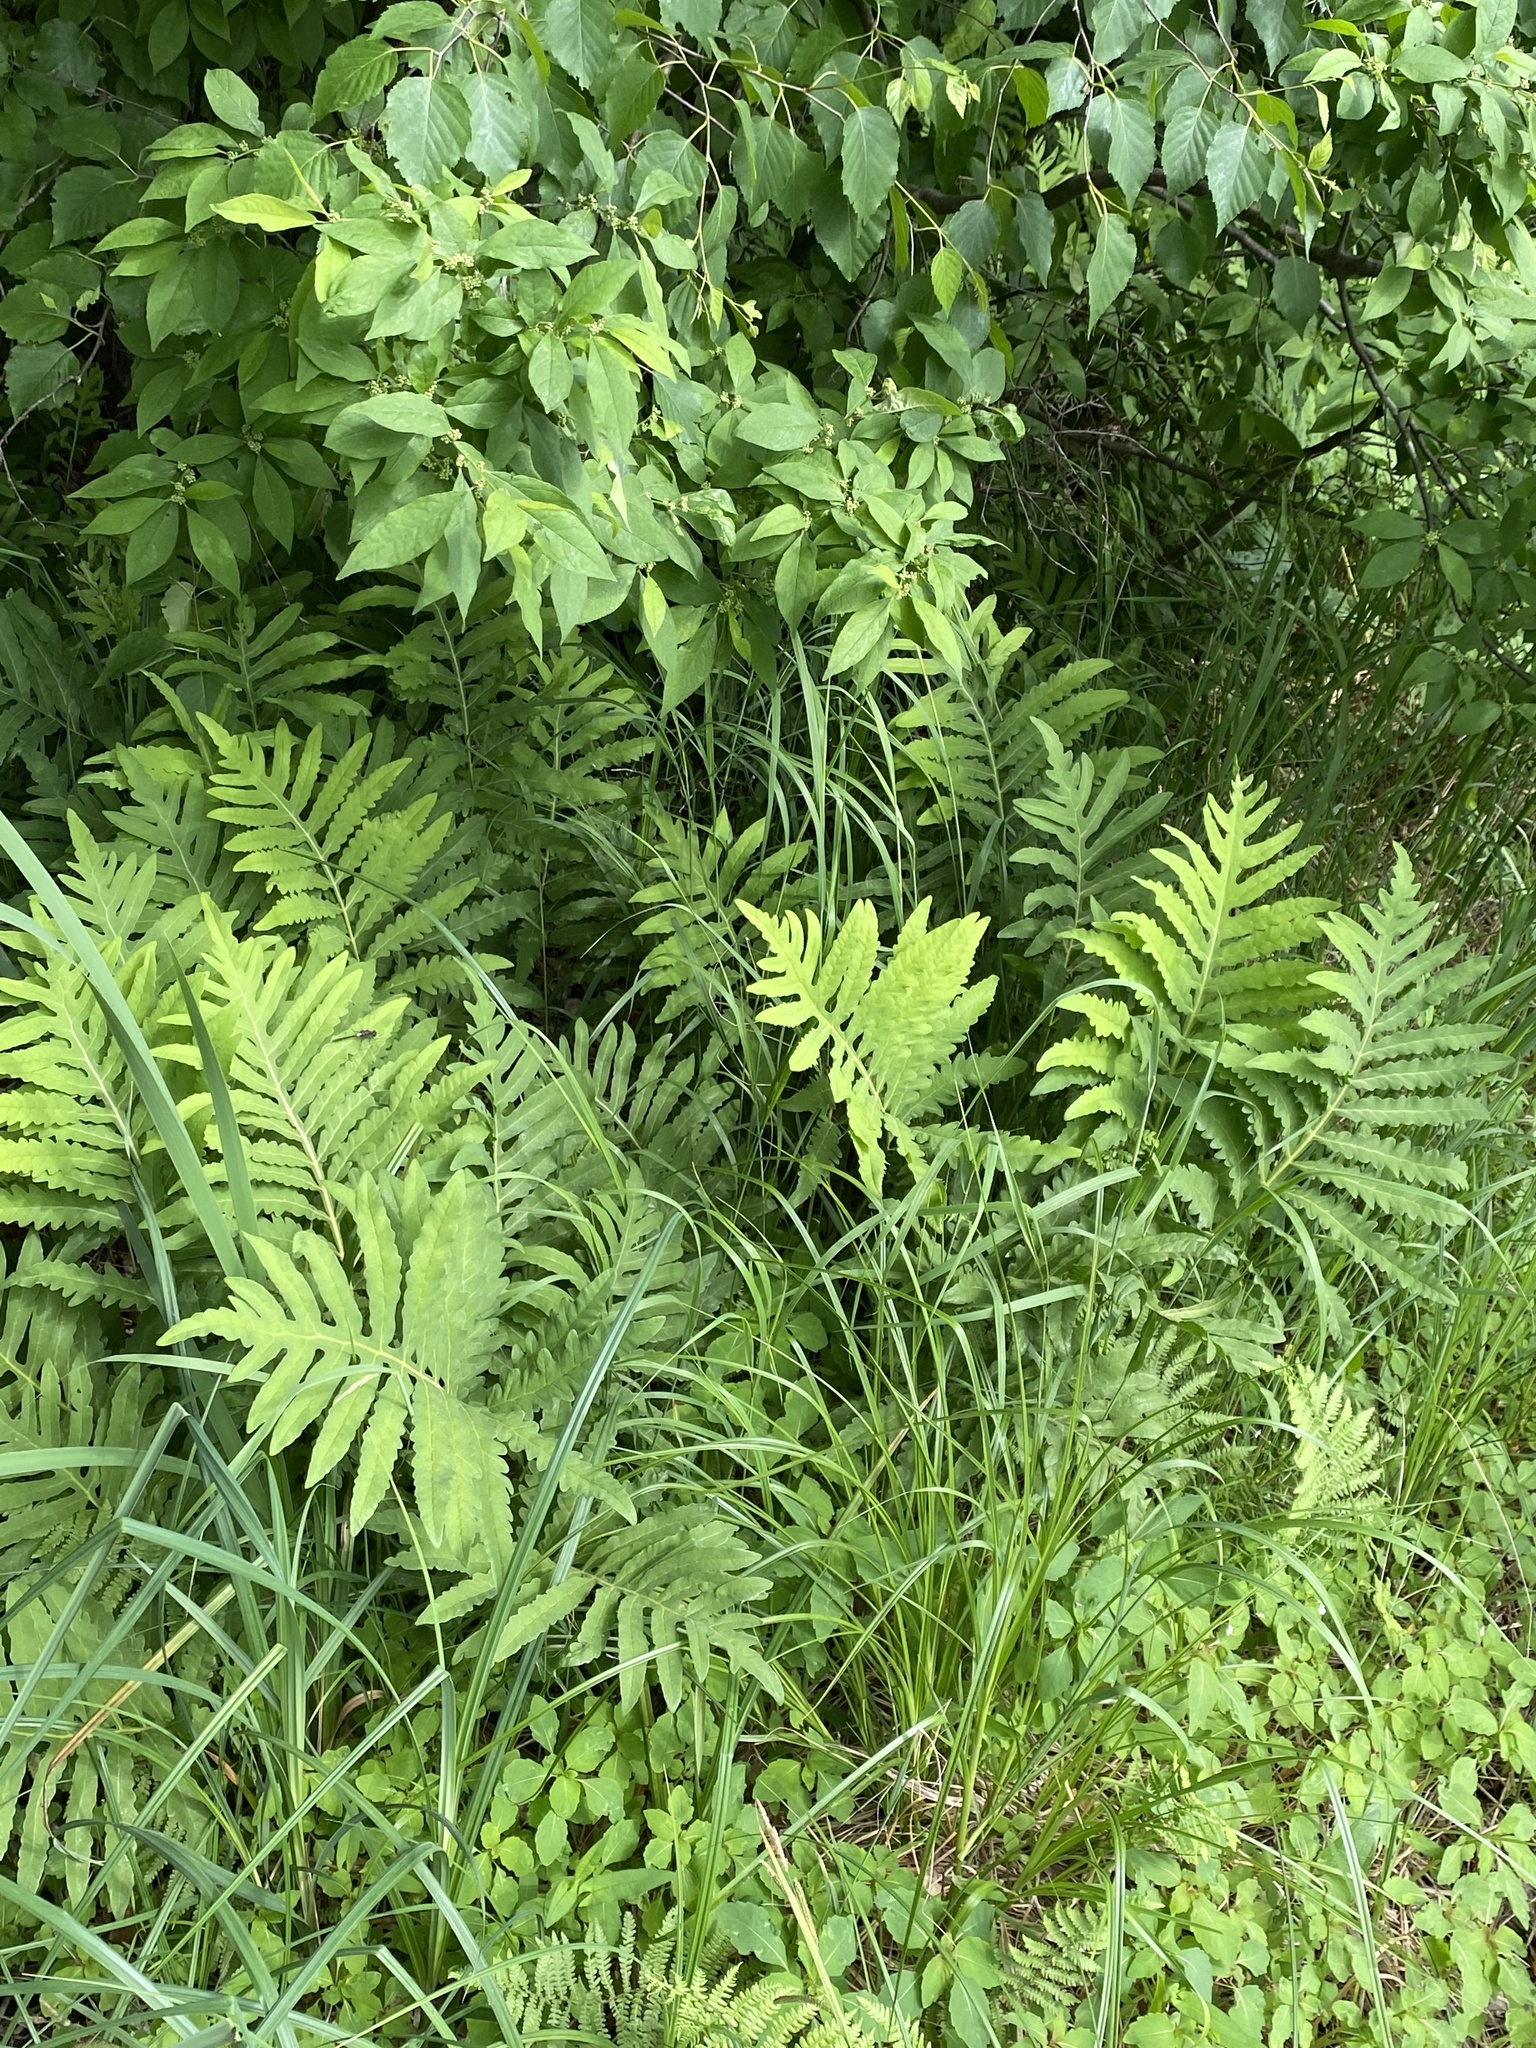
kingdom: Plantae
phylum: Tracheophyta
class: Polypodiopsida
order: Polypodiales
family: Onocleaceae
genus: Onoclea
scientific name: Onoclea sensibilis
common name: Sensitive fern
